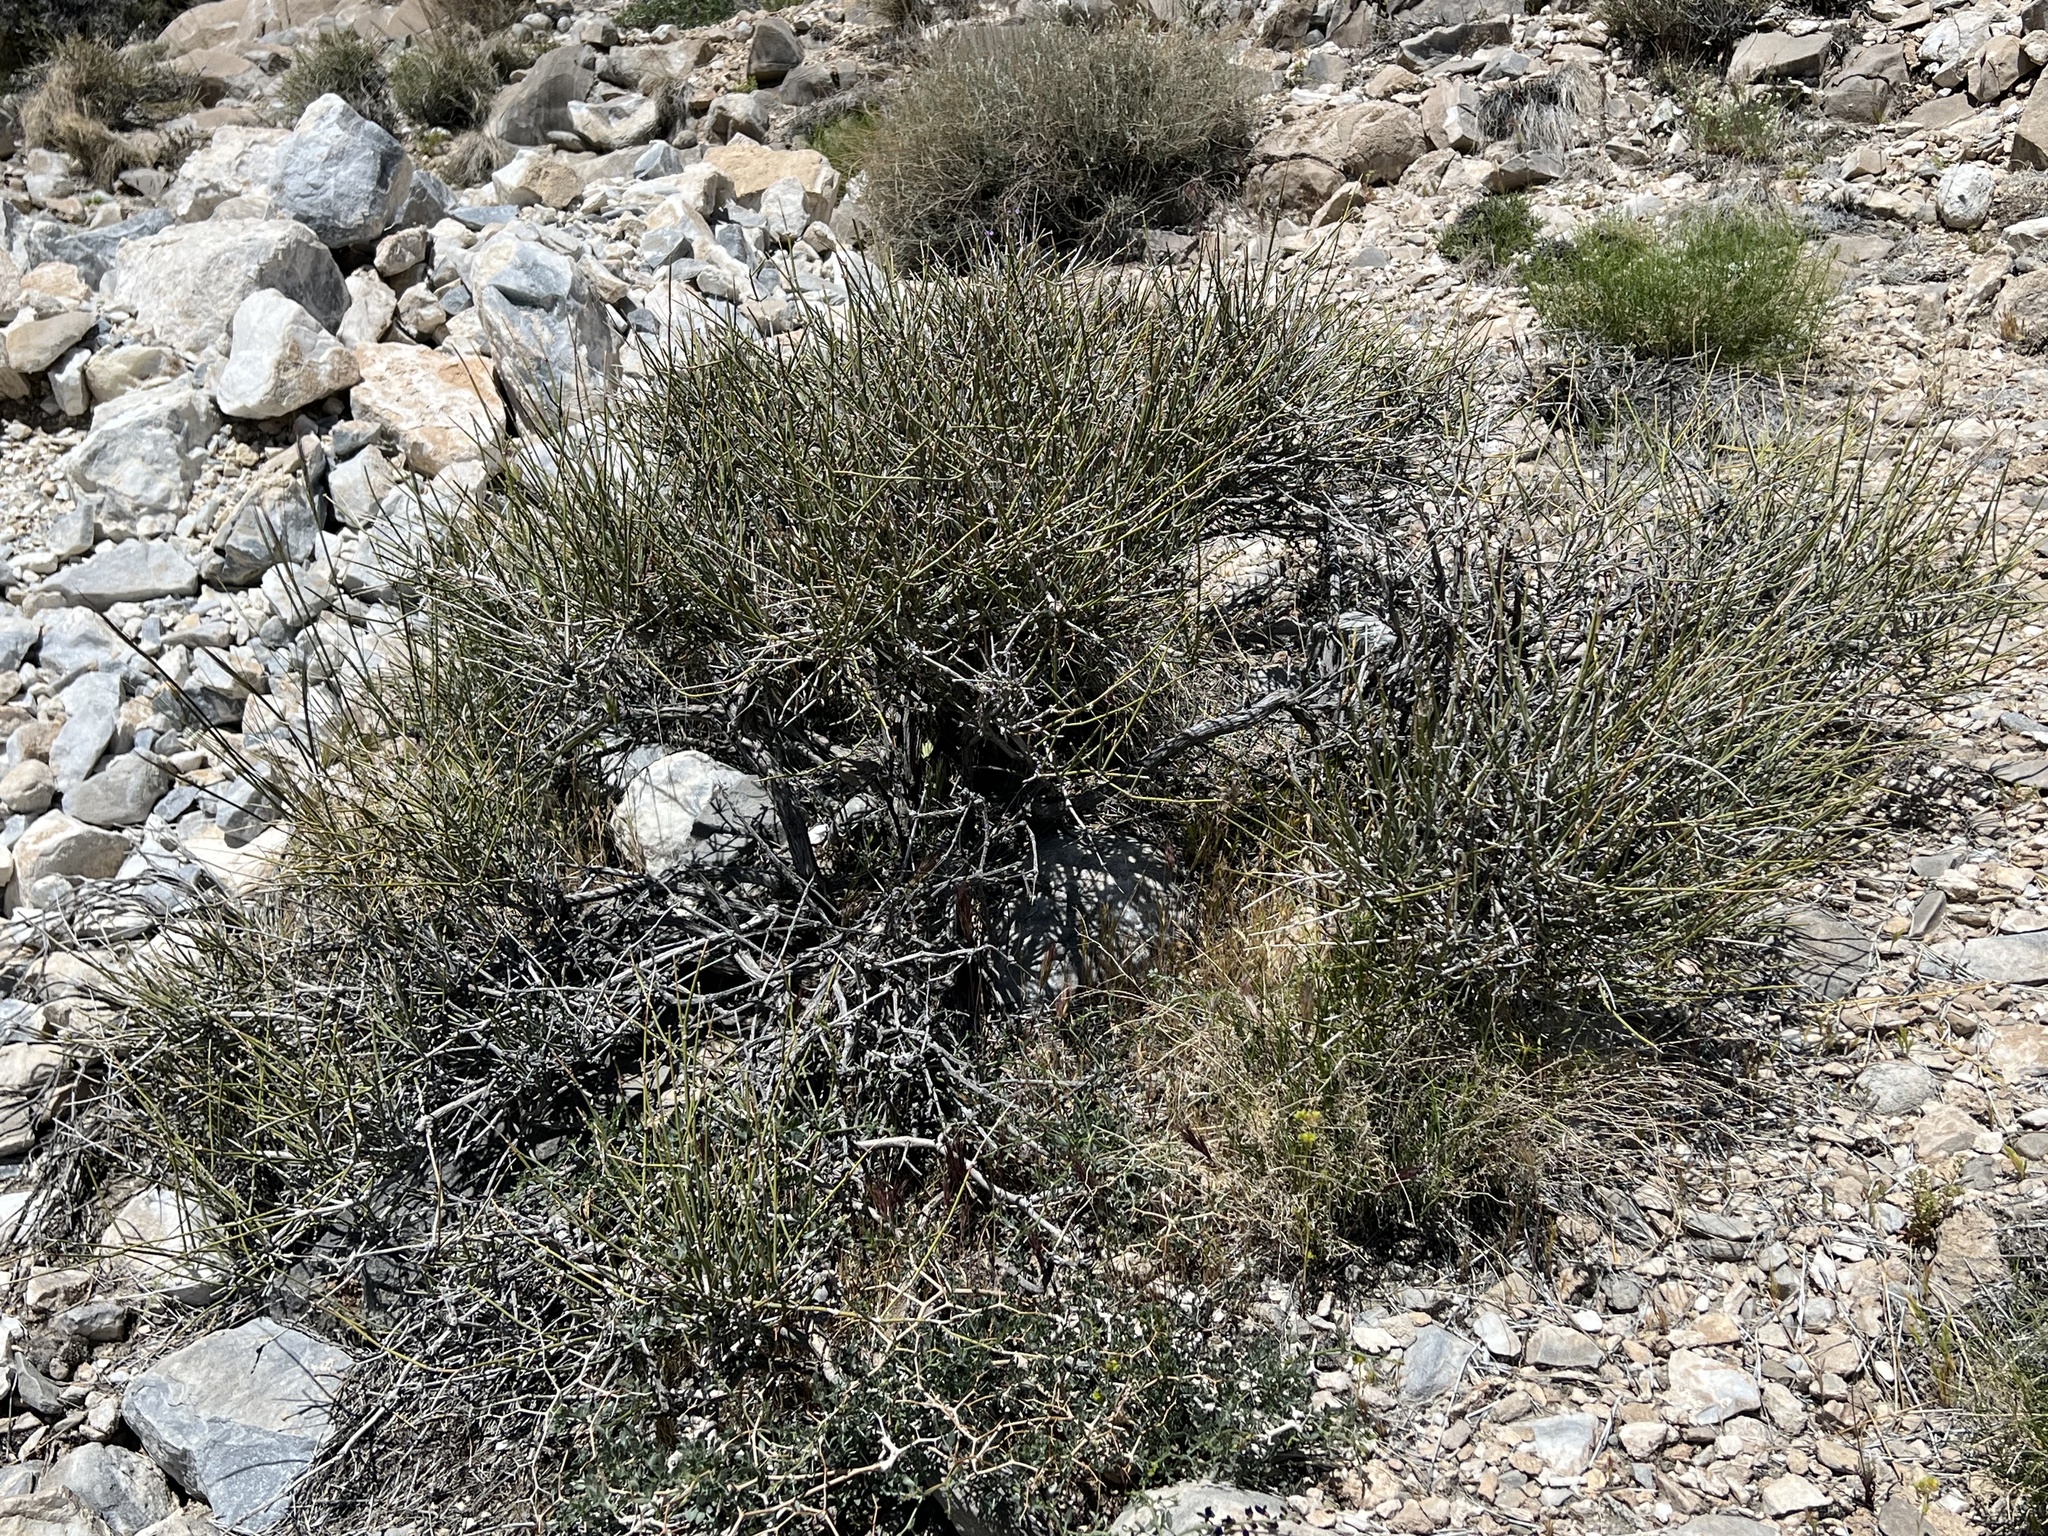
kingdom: Plantae
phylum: Tracheophyta
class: Gnetopsida
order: Ephedrales
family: Ephedraceae
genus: Ephedra
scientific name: Ephedra nevadensis
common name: Gray ephedra
